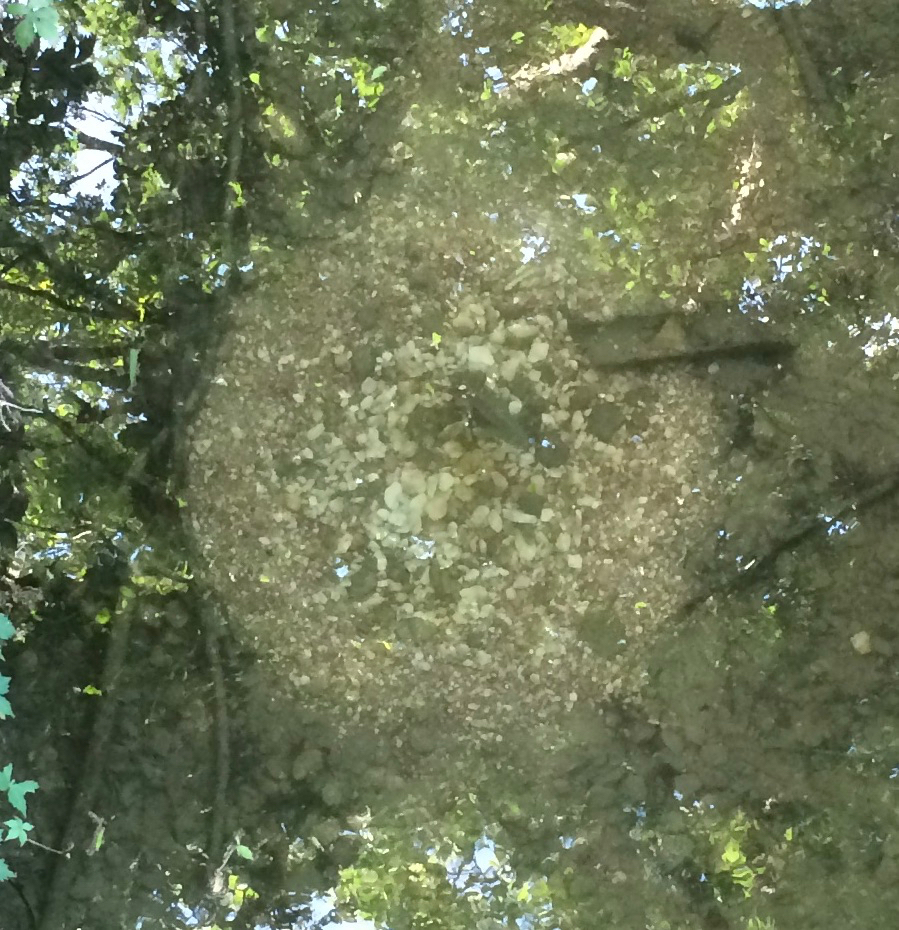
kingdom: Animalia
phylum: Chordata
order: Perciformes
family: Centrarchidae
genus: Lepomis
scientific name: Lepomis
